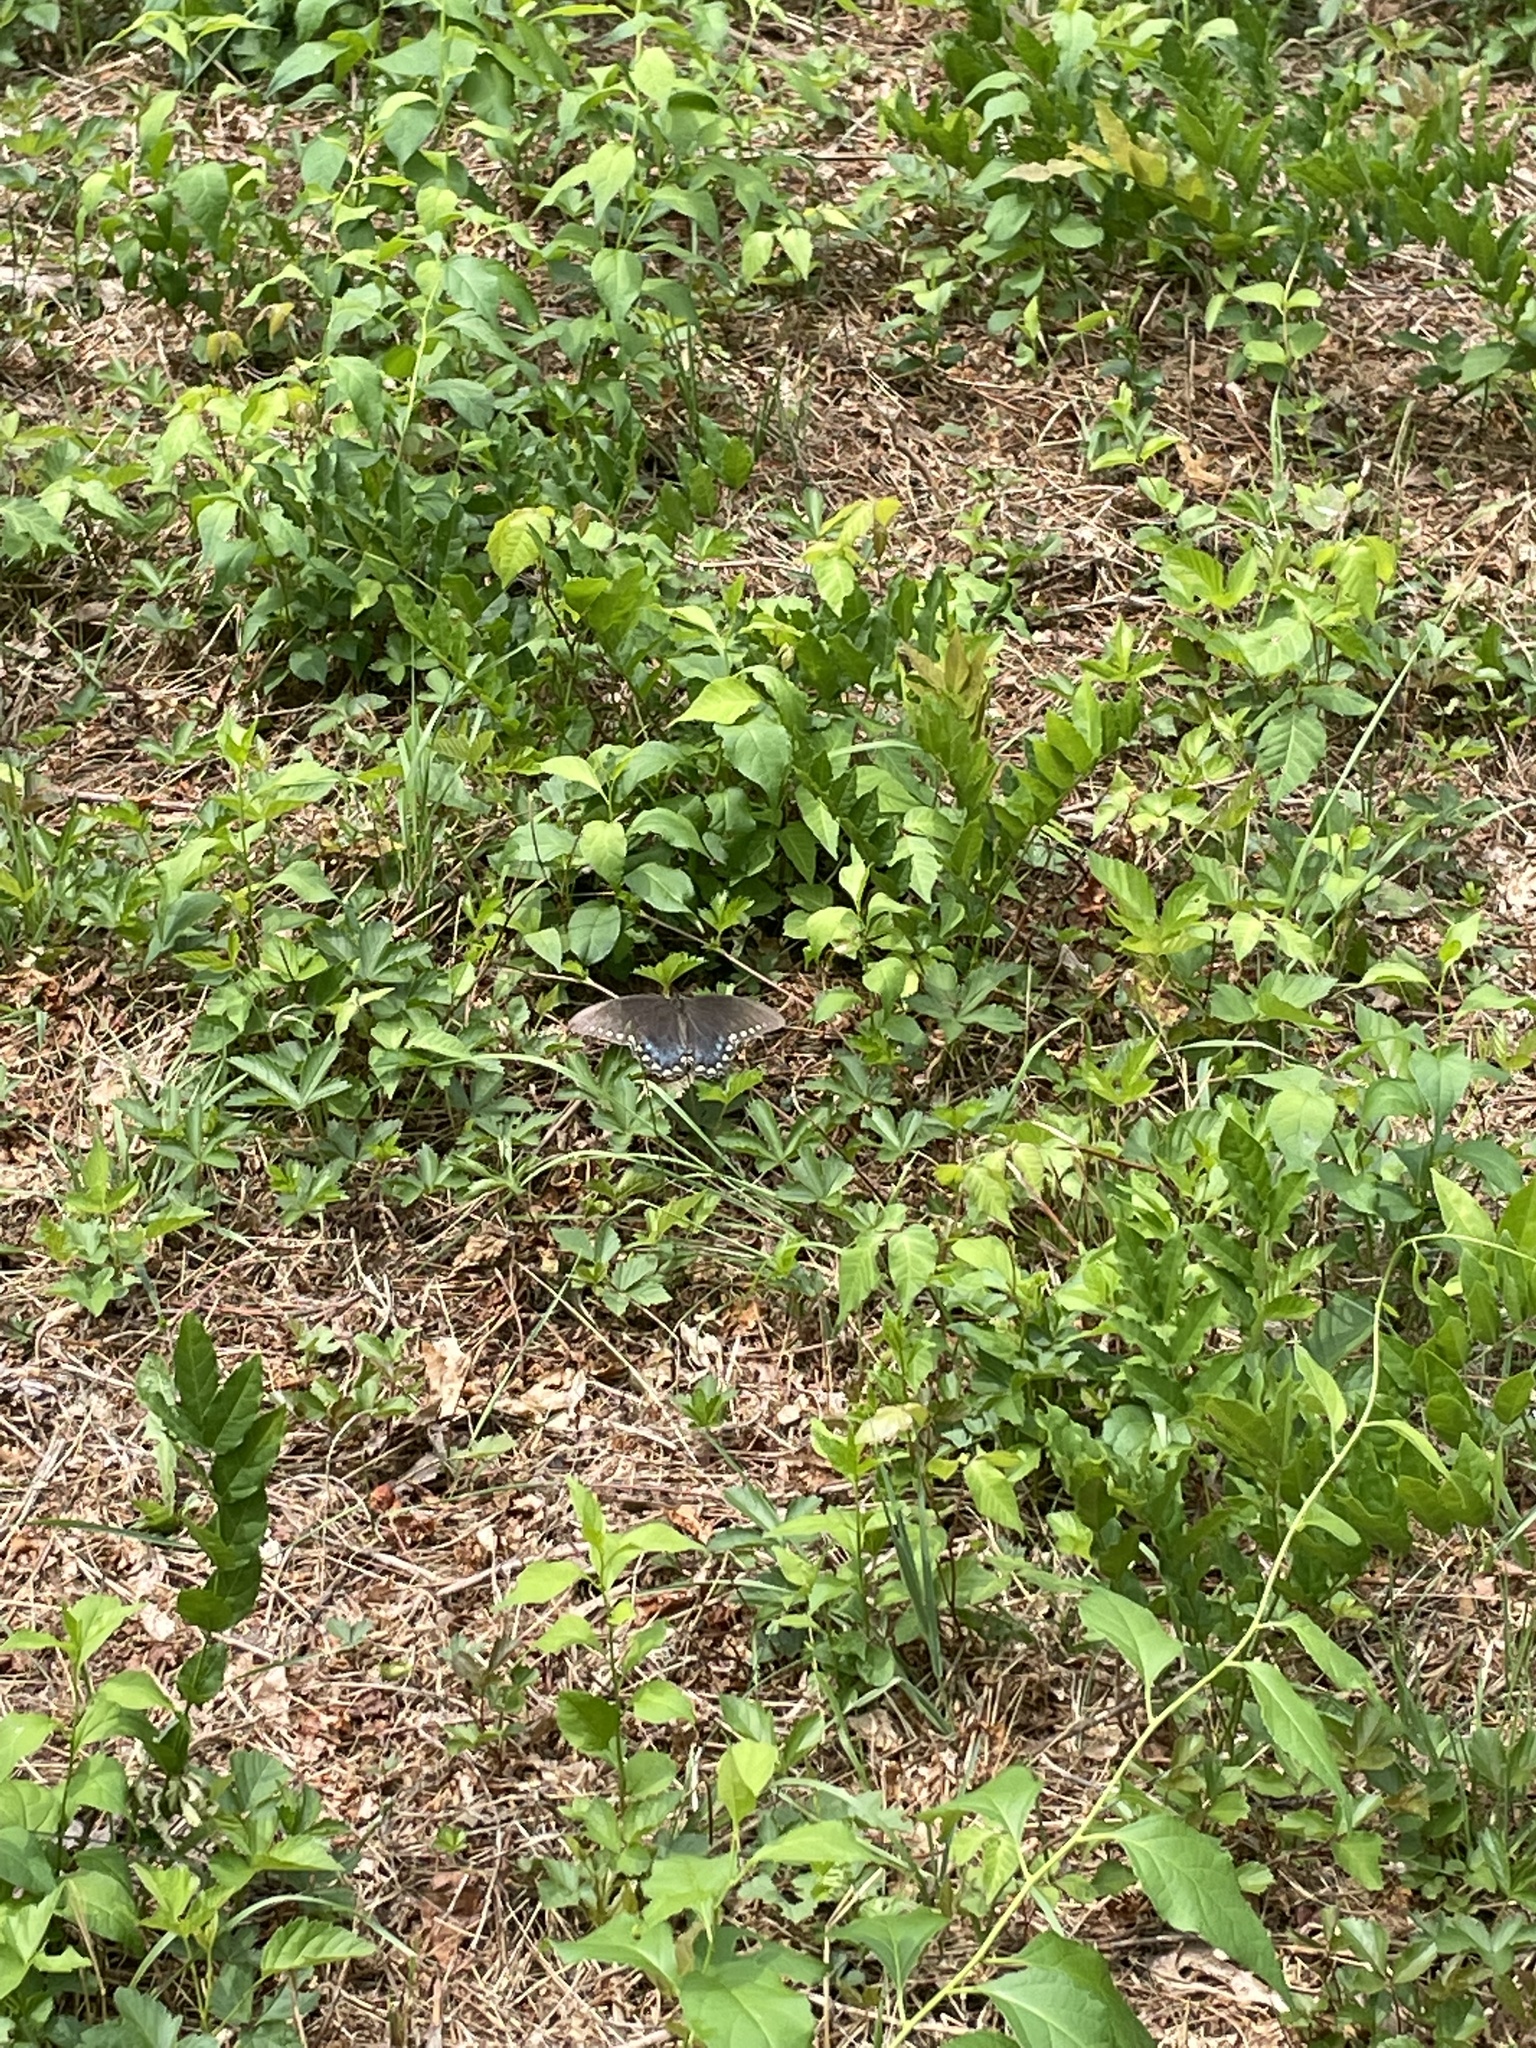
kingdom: Animalia
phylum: Arthropoda
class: Insecta
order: Lepidoptera
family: Papilionidae
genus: Papilio
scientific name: Papilio troilus
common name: Spicebush swallowtail
